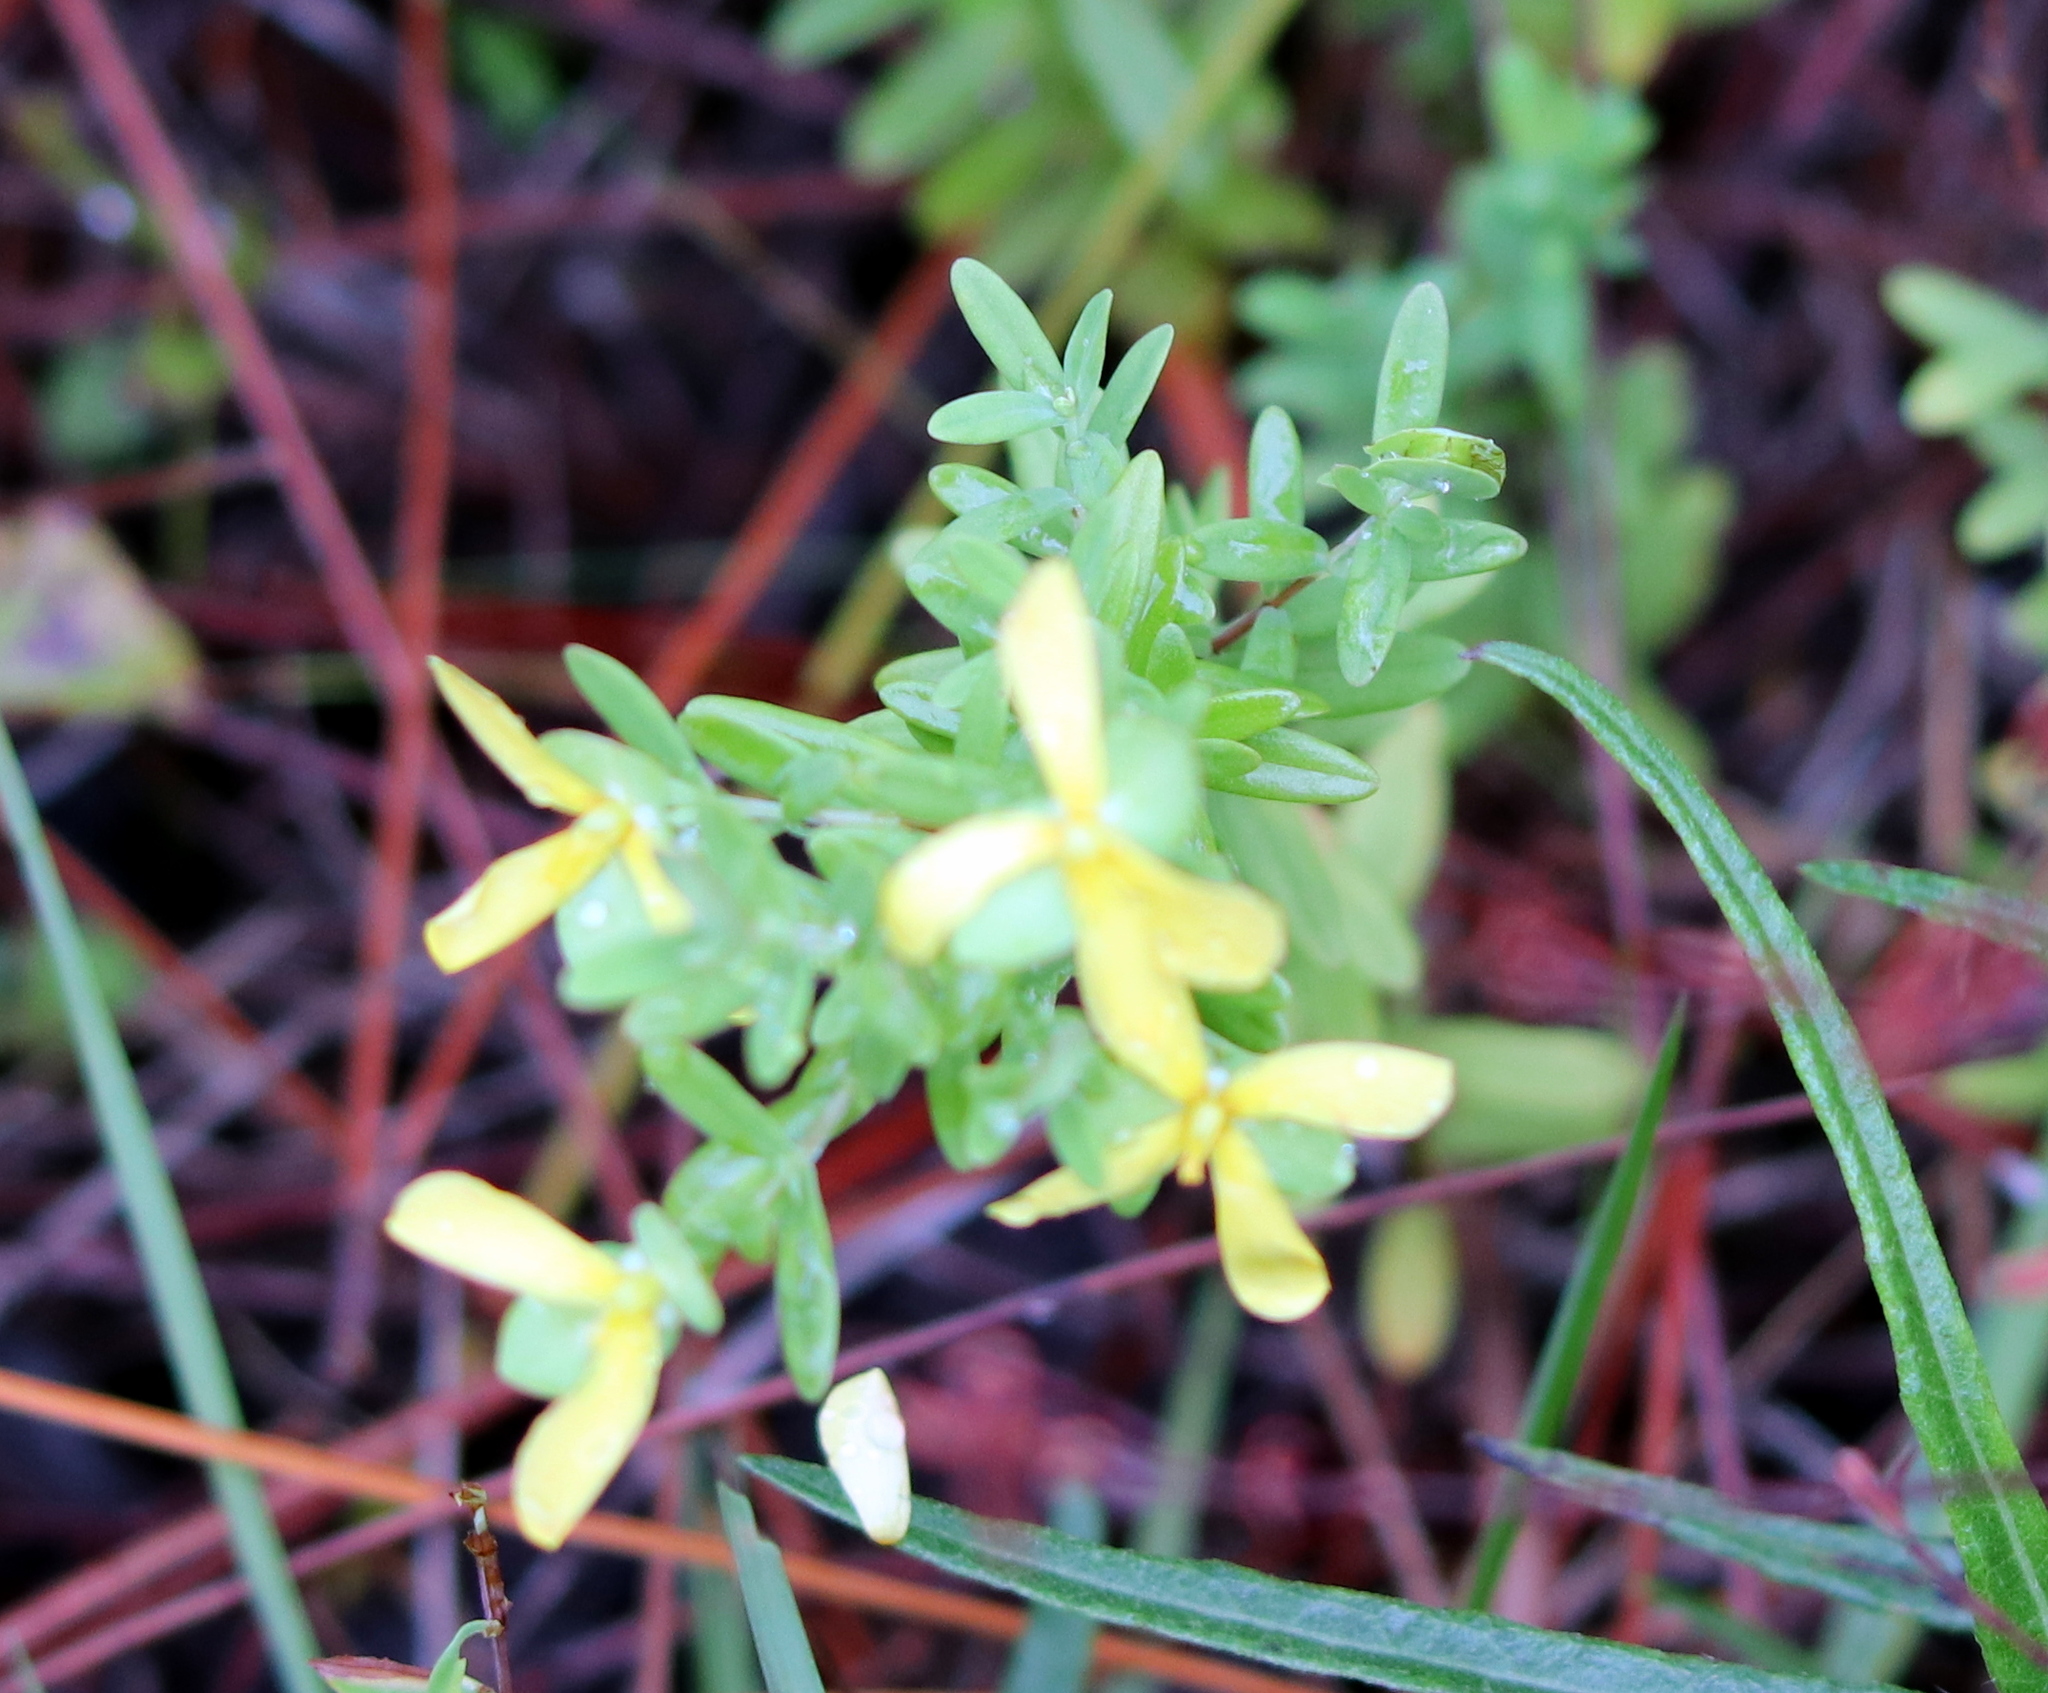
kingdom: Plantae
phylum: Tracheophyta
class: Magnoliopsida
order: Malpighiales
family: Hypericaceae
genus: Hypericum
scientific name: Hypericum hypericoides
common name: St. andrew's cross
